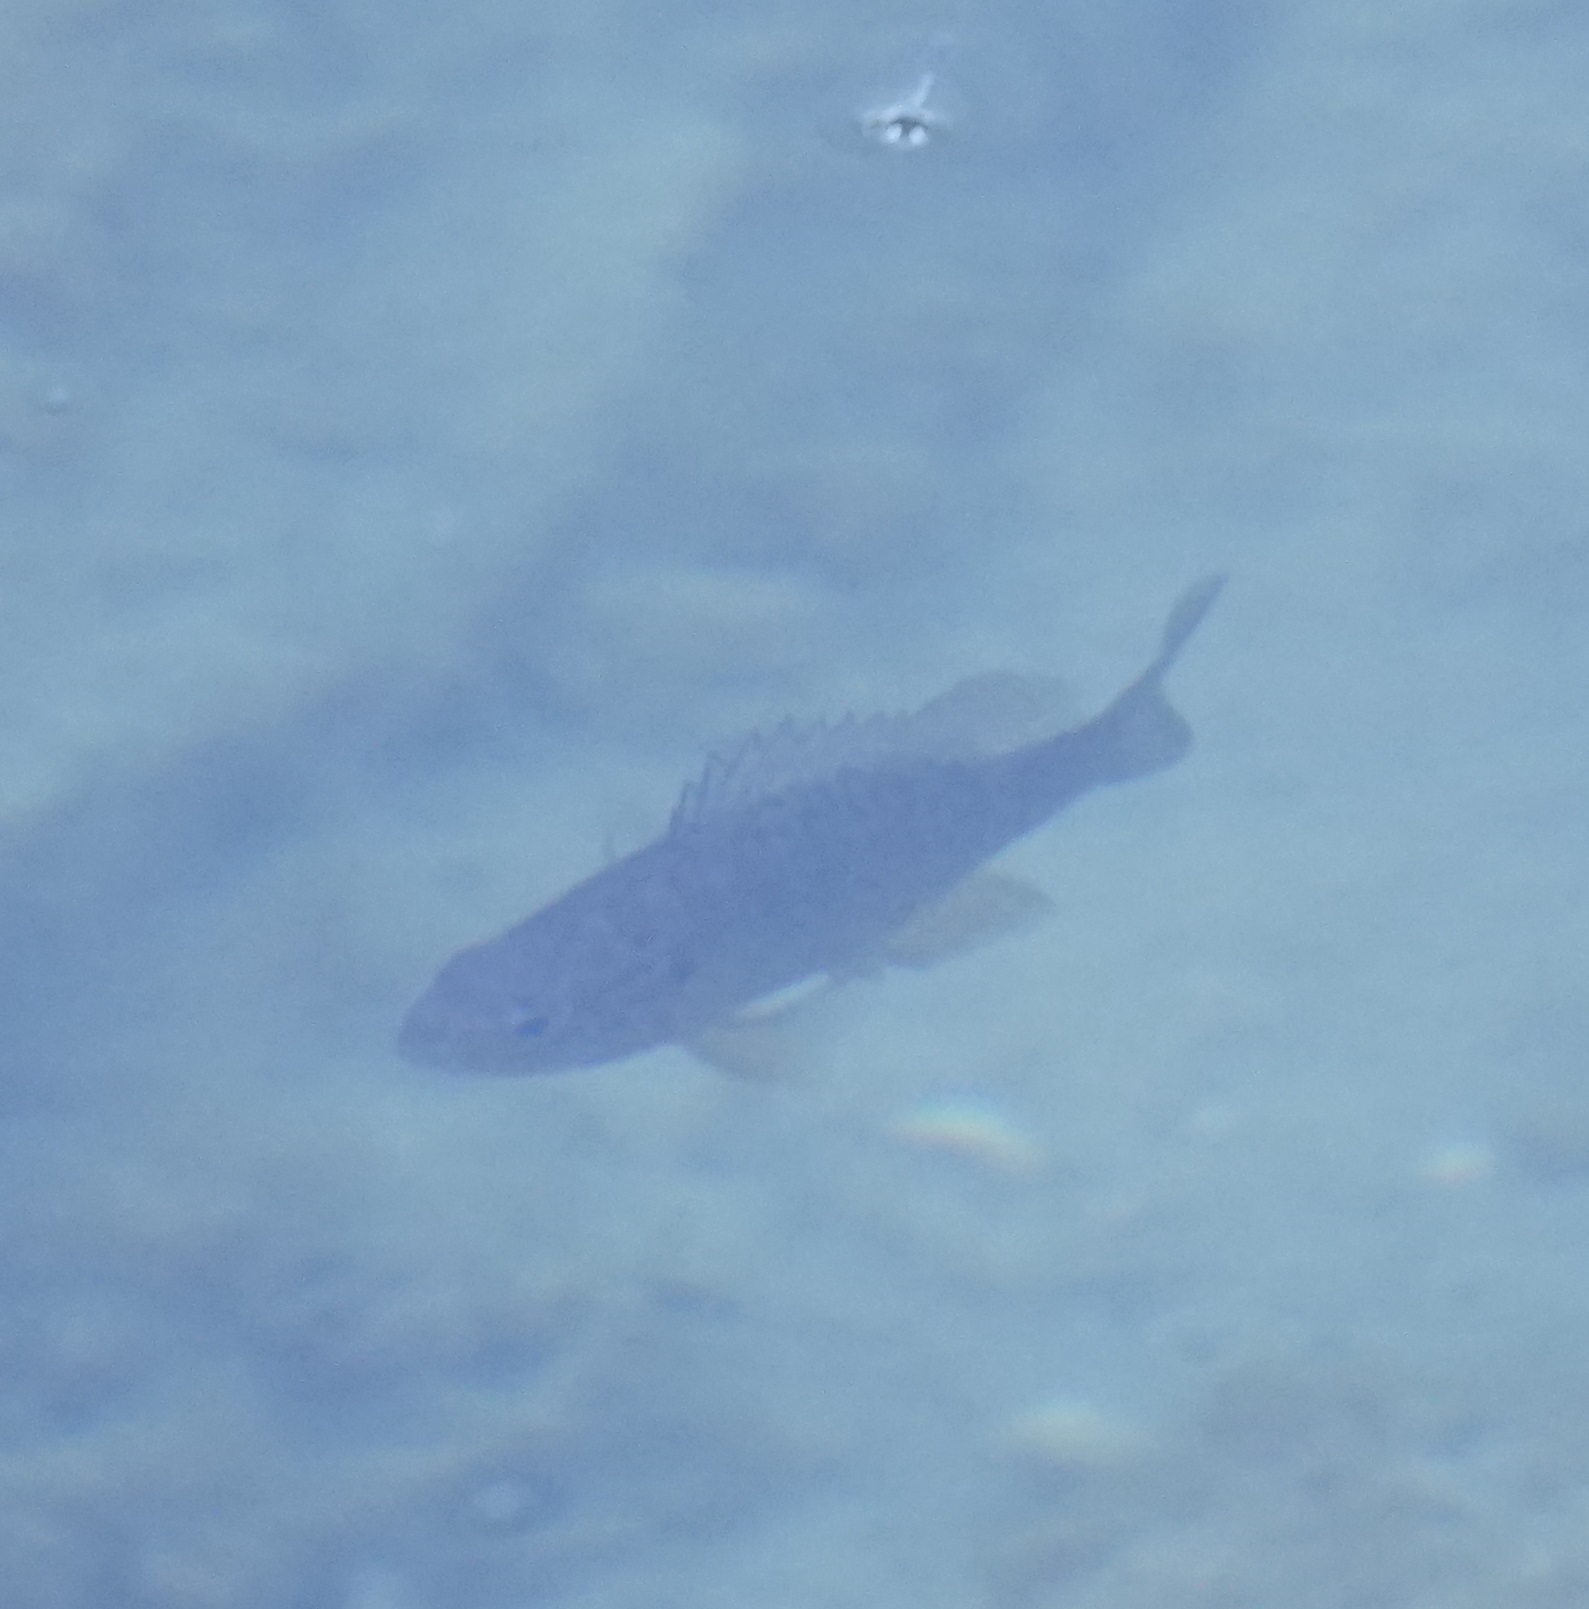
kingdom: Animalia
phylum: Chordata
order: Perciformes
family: Centrarchidae
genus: Lepomis
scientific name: Lepomis gibbosus
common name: Pumpkinseed
